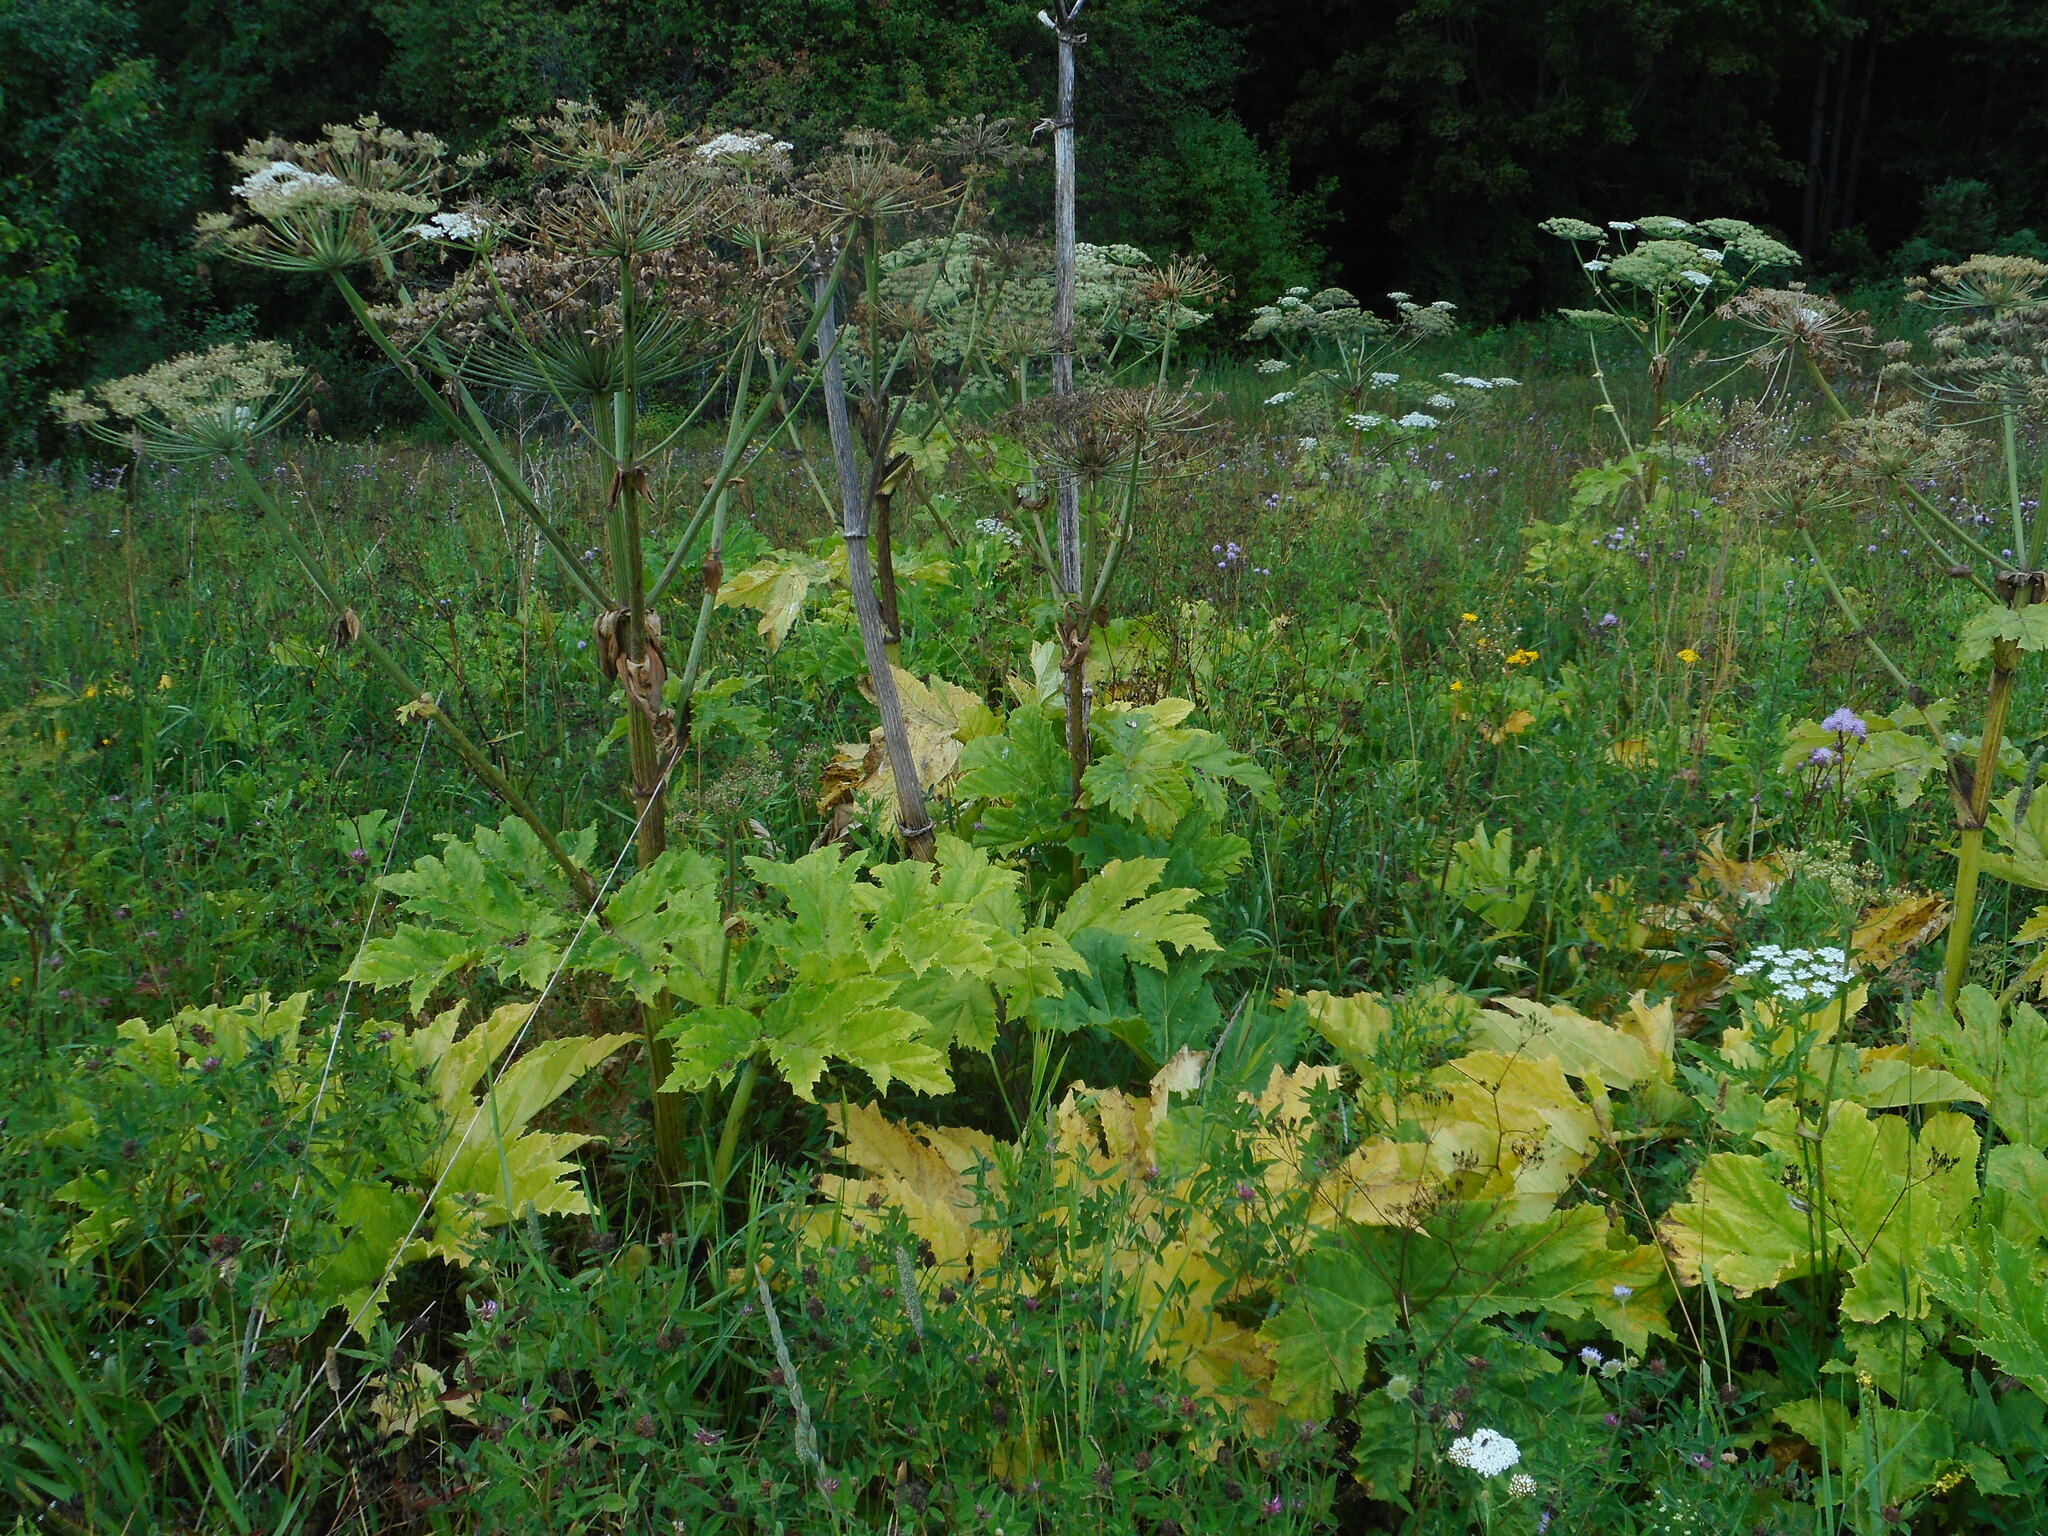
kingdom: Plantae
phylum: Tracheophyta
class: Magnoliopsida
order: Apiales
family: Apiaceae
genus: Heracleum
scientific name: Heracleum sosnowskyi
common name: Sosnowsky's hogweed
